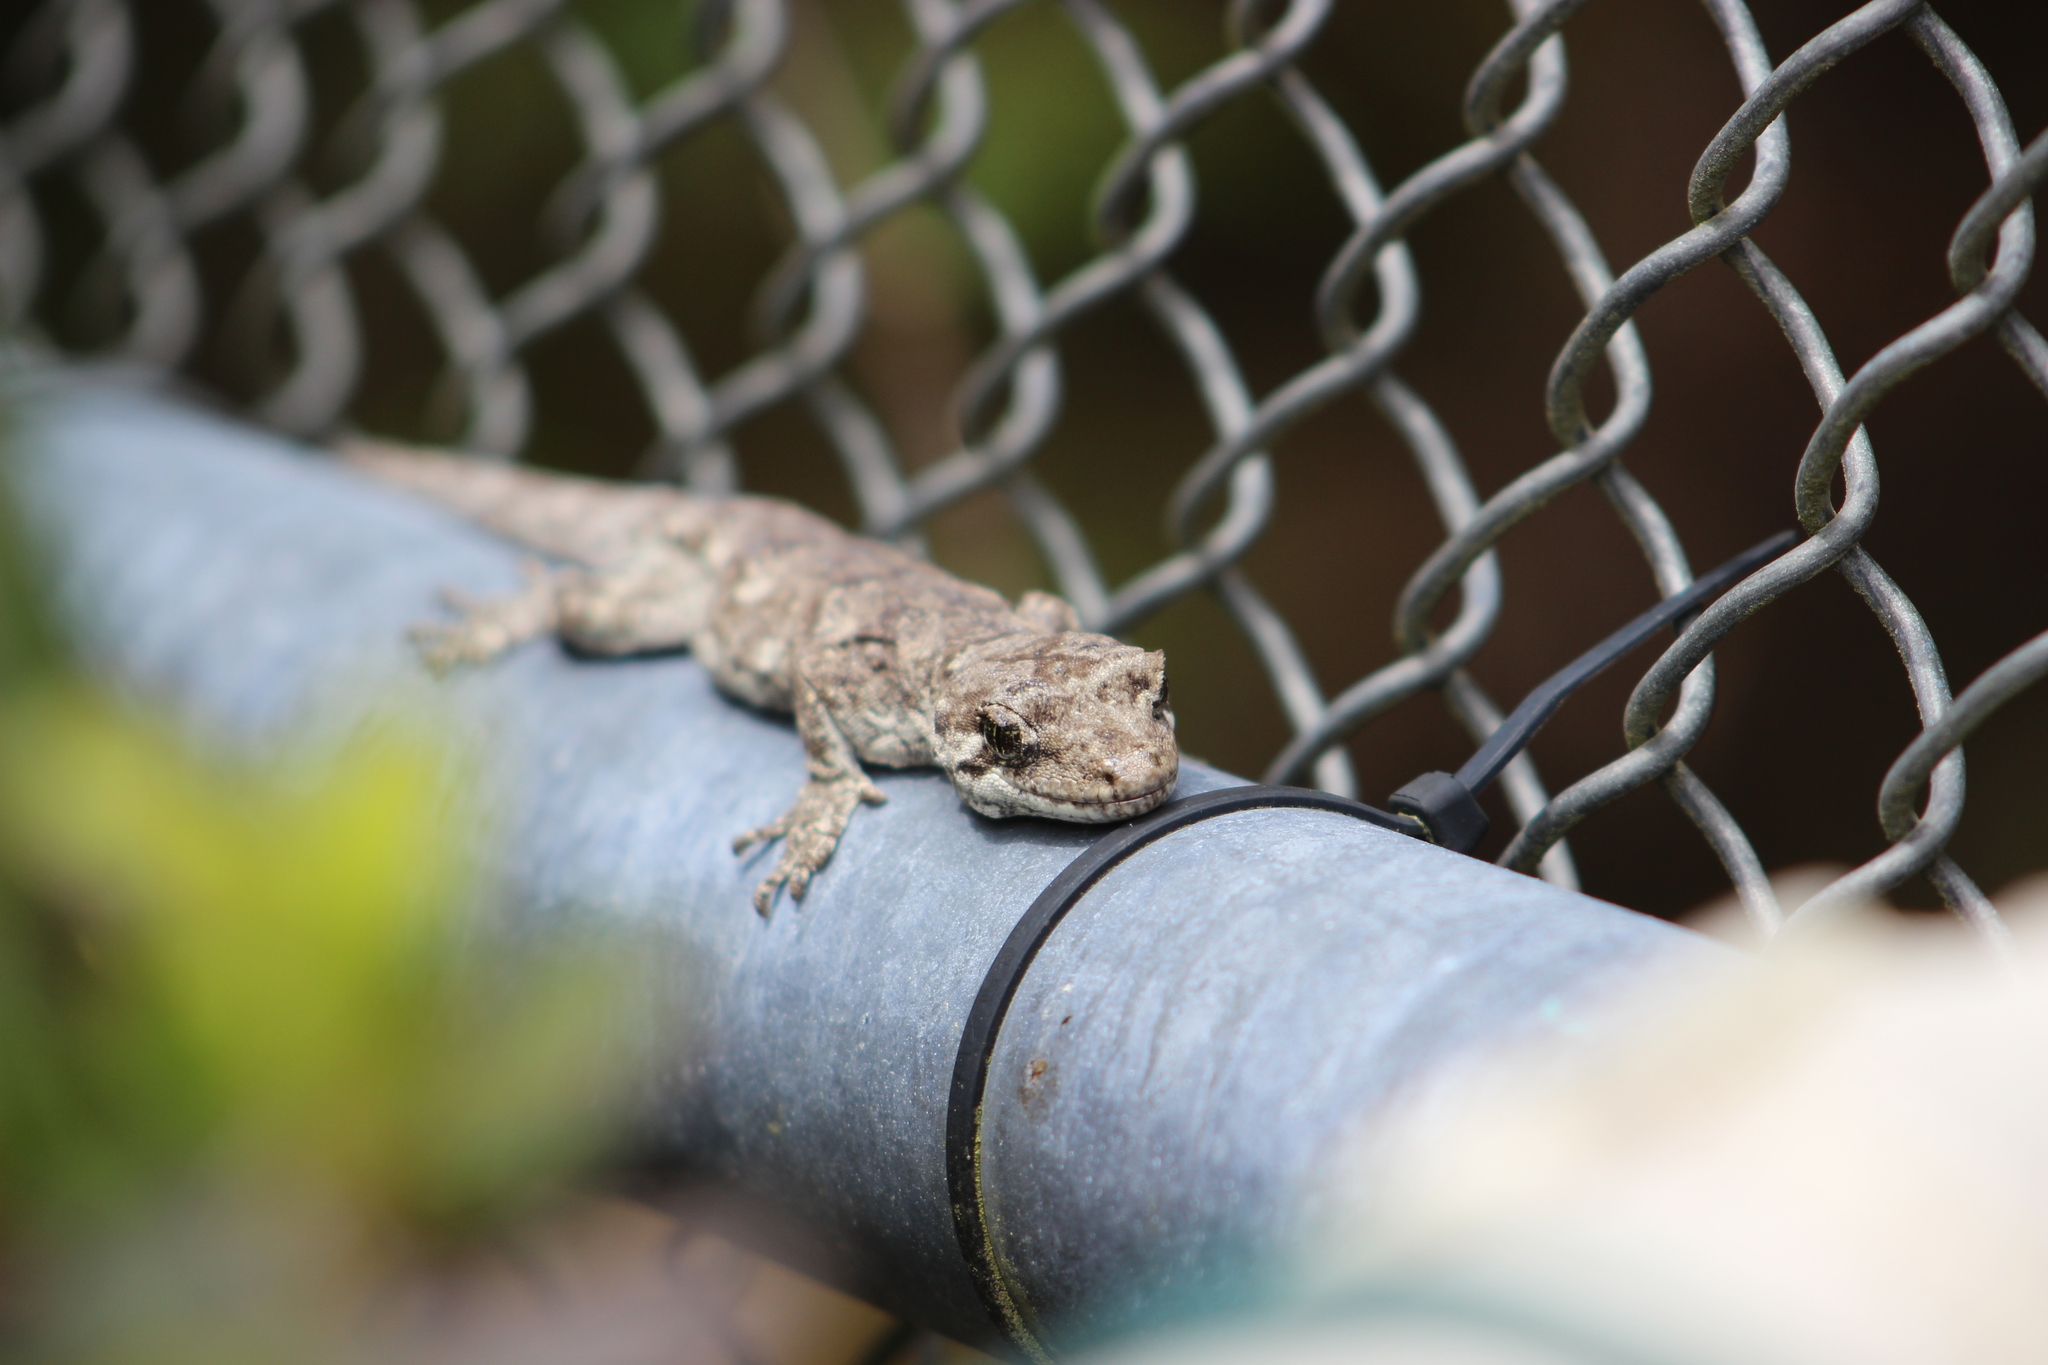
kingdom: Animalia
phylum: Chordata
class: Squamata
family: Diplodactylidae
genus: Mokopirirakau
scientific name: Mokopirirakau
